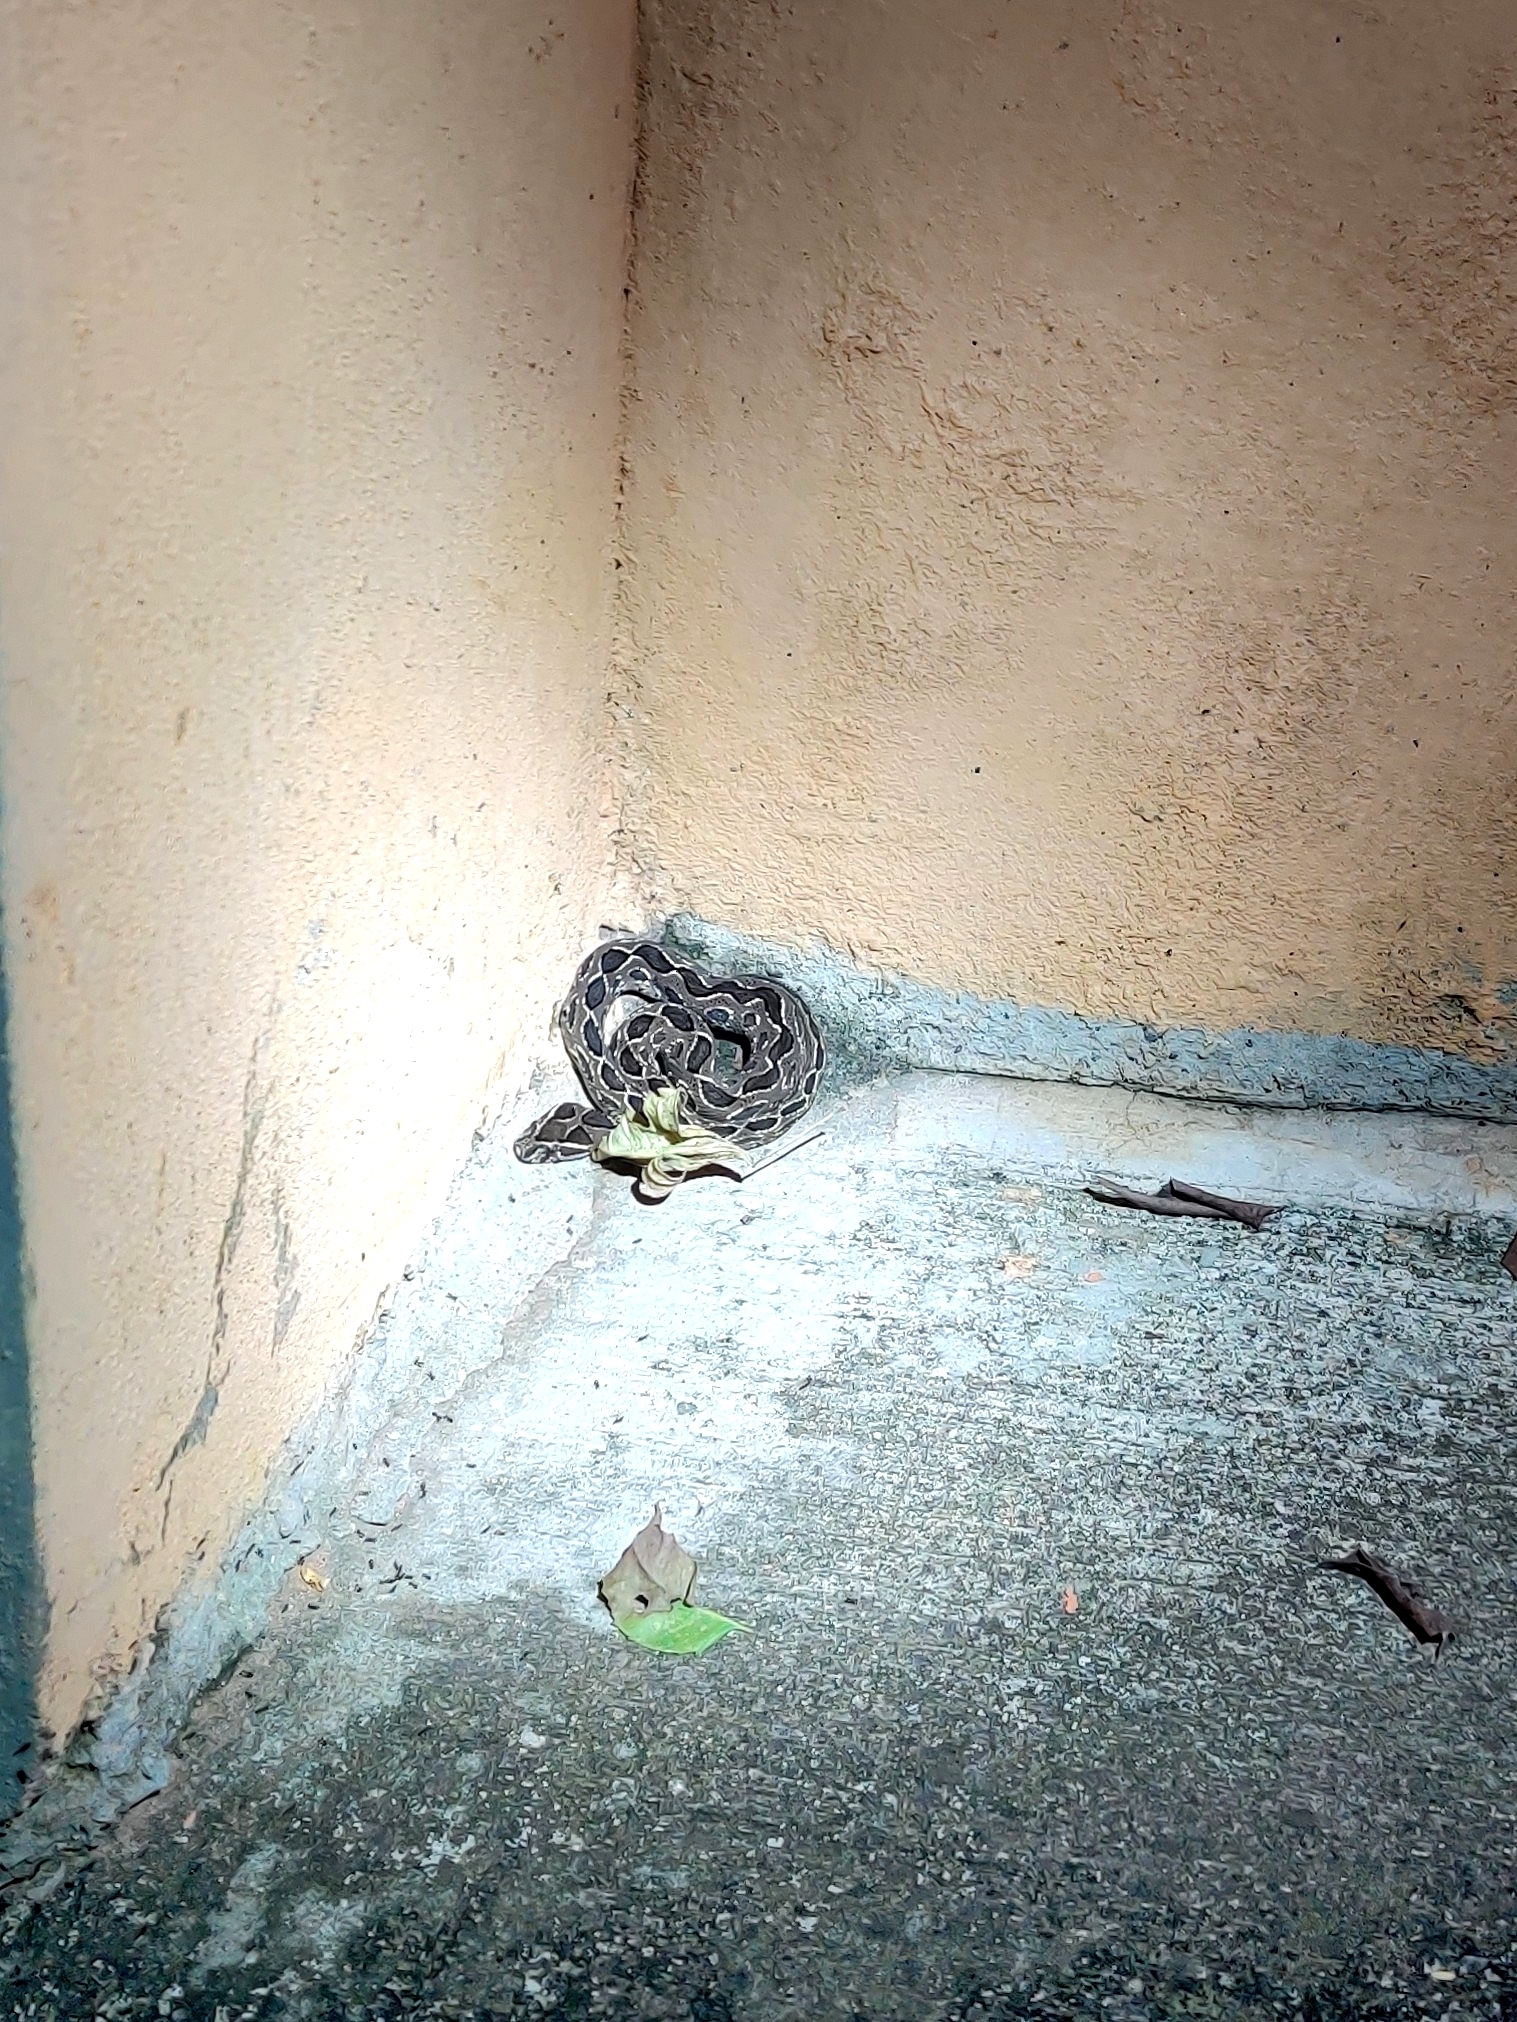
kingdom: Animalia
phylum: Chordata
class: Squamata
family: Viperidae
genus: Daboia
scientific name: Daboia russelii
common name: Western russel’s viper
